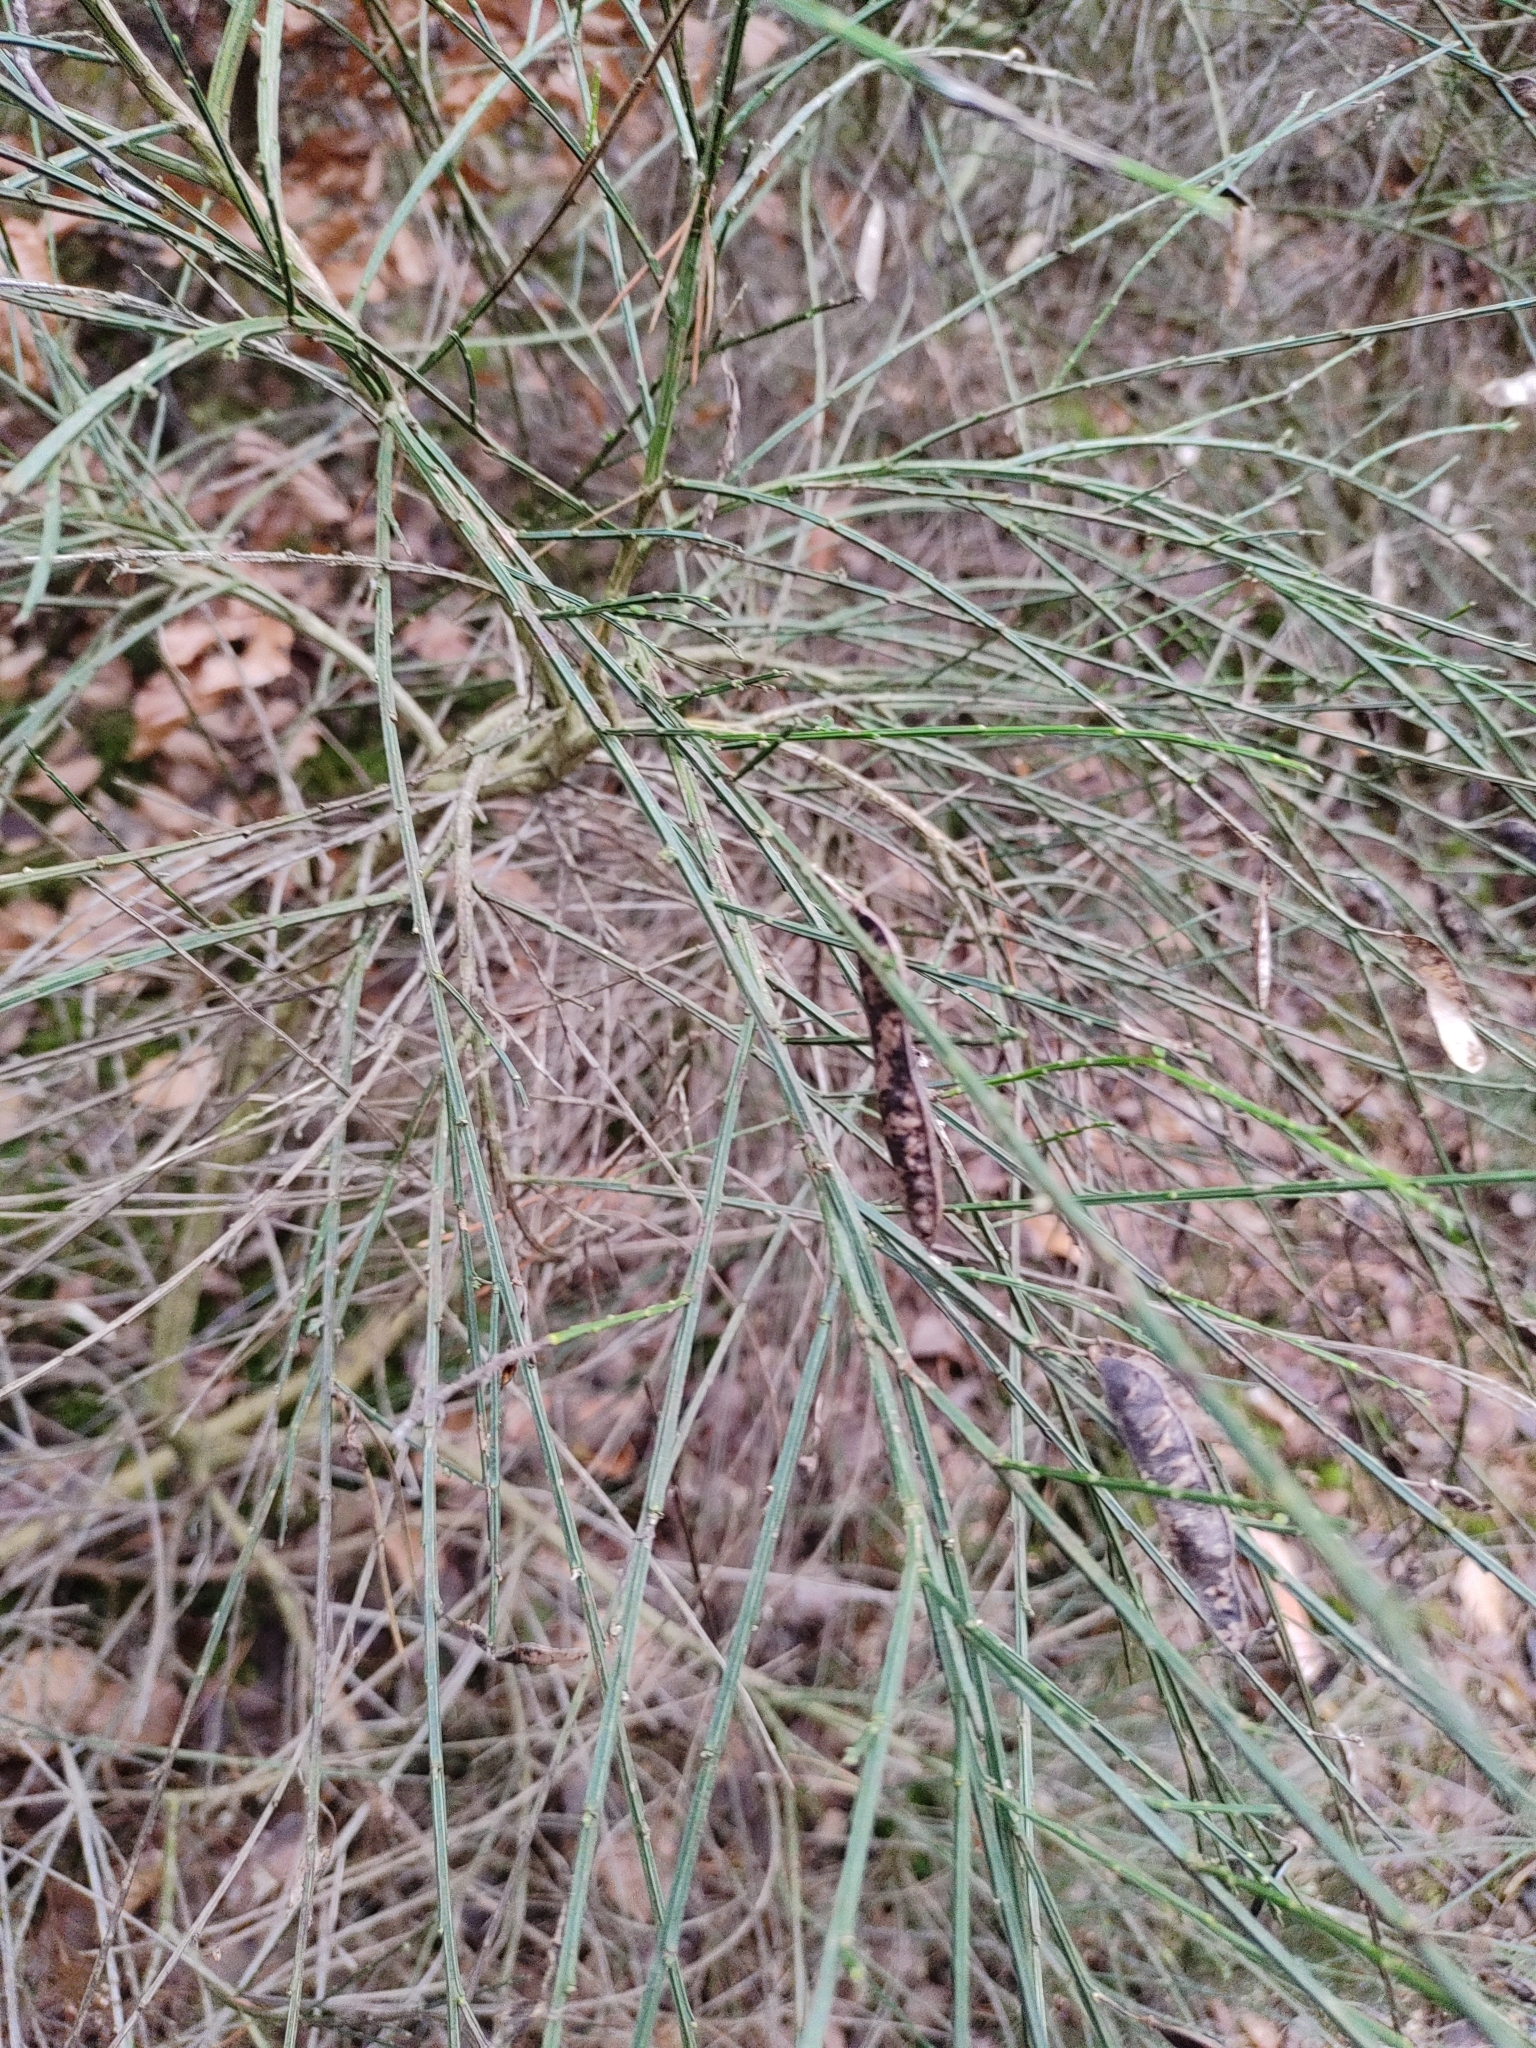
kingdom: Plantae
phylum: Tracheophyta
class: Magnoliopsida
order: Fabales
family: Fabaceae
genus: Cytisus
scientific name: Cytisus scoparius
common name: Scotch broom
